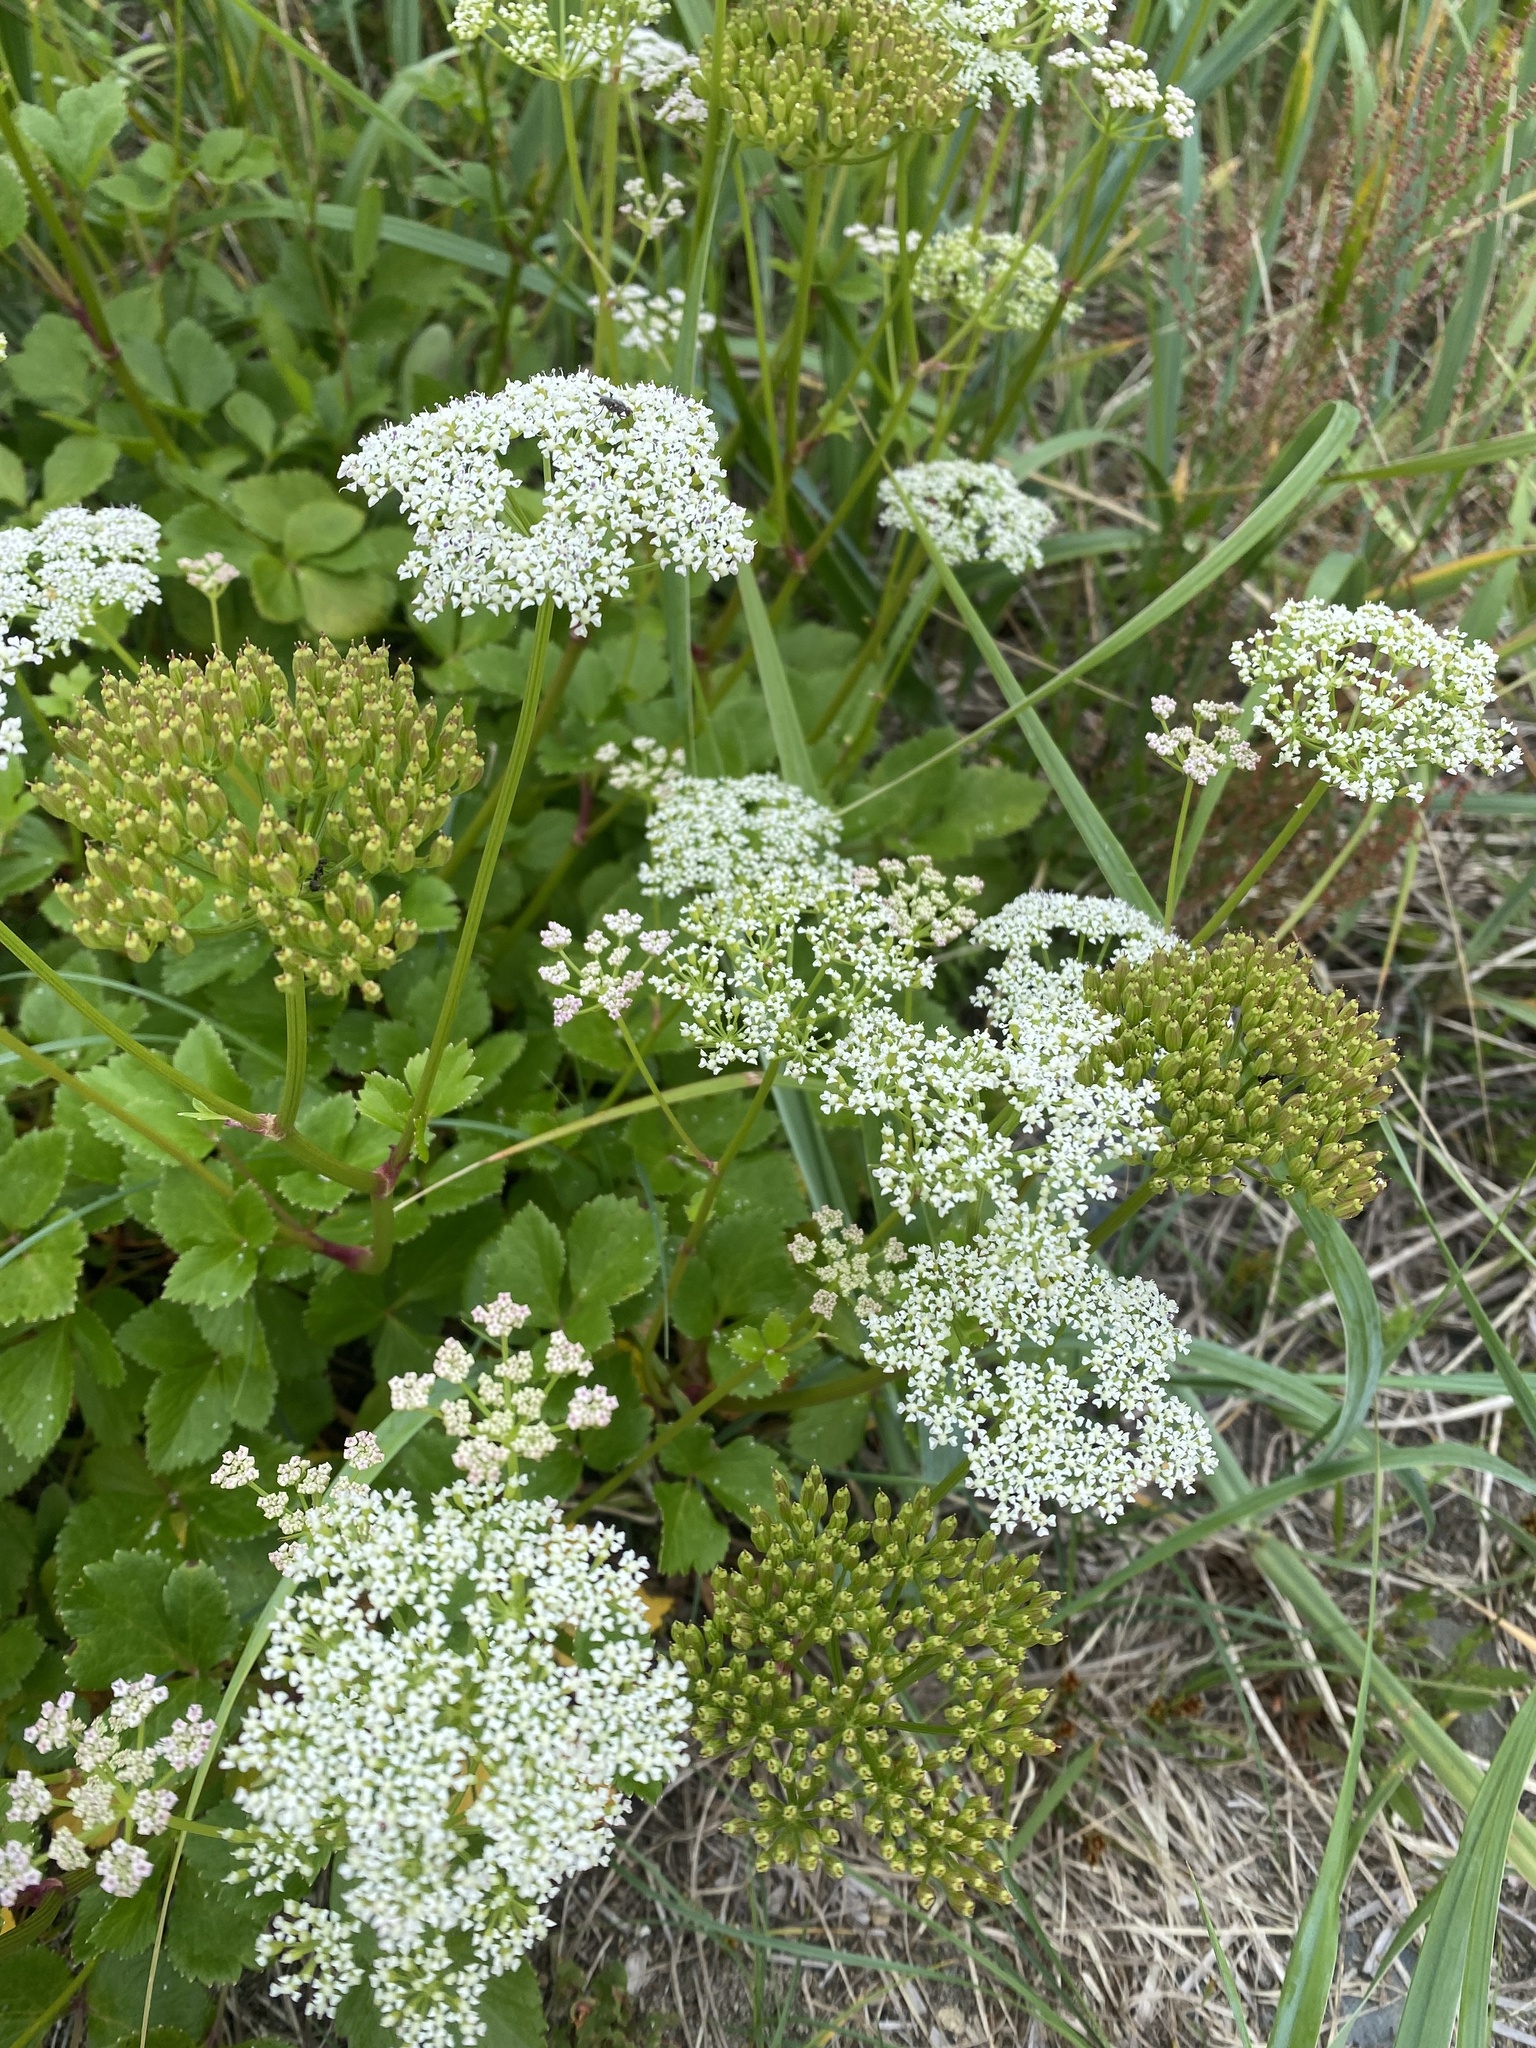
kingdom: Plantae
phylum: Tracheophyta
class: Magnoliopsida
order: Apiales
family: Apiaceae
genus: Ligusticum
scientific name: Ligusticum scothicum
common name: Beach lovage
